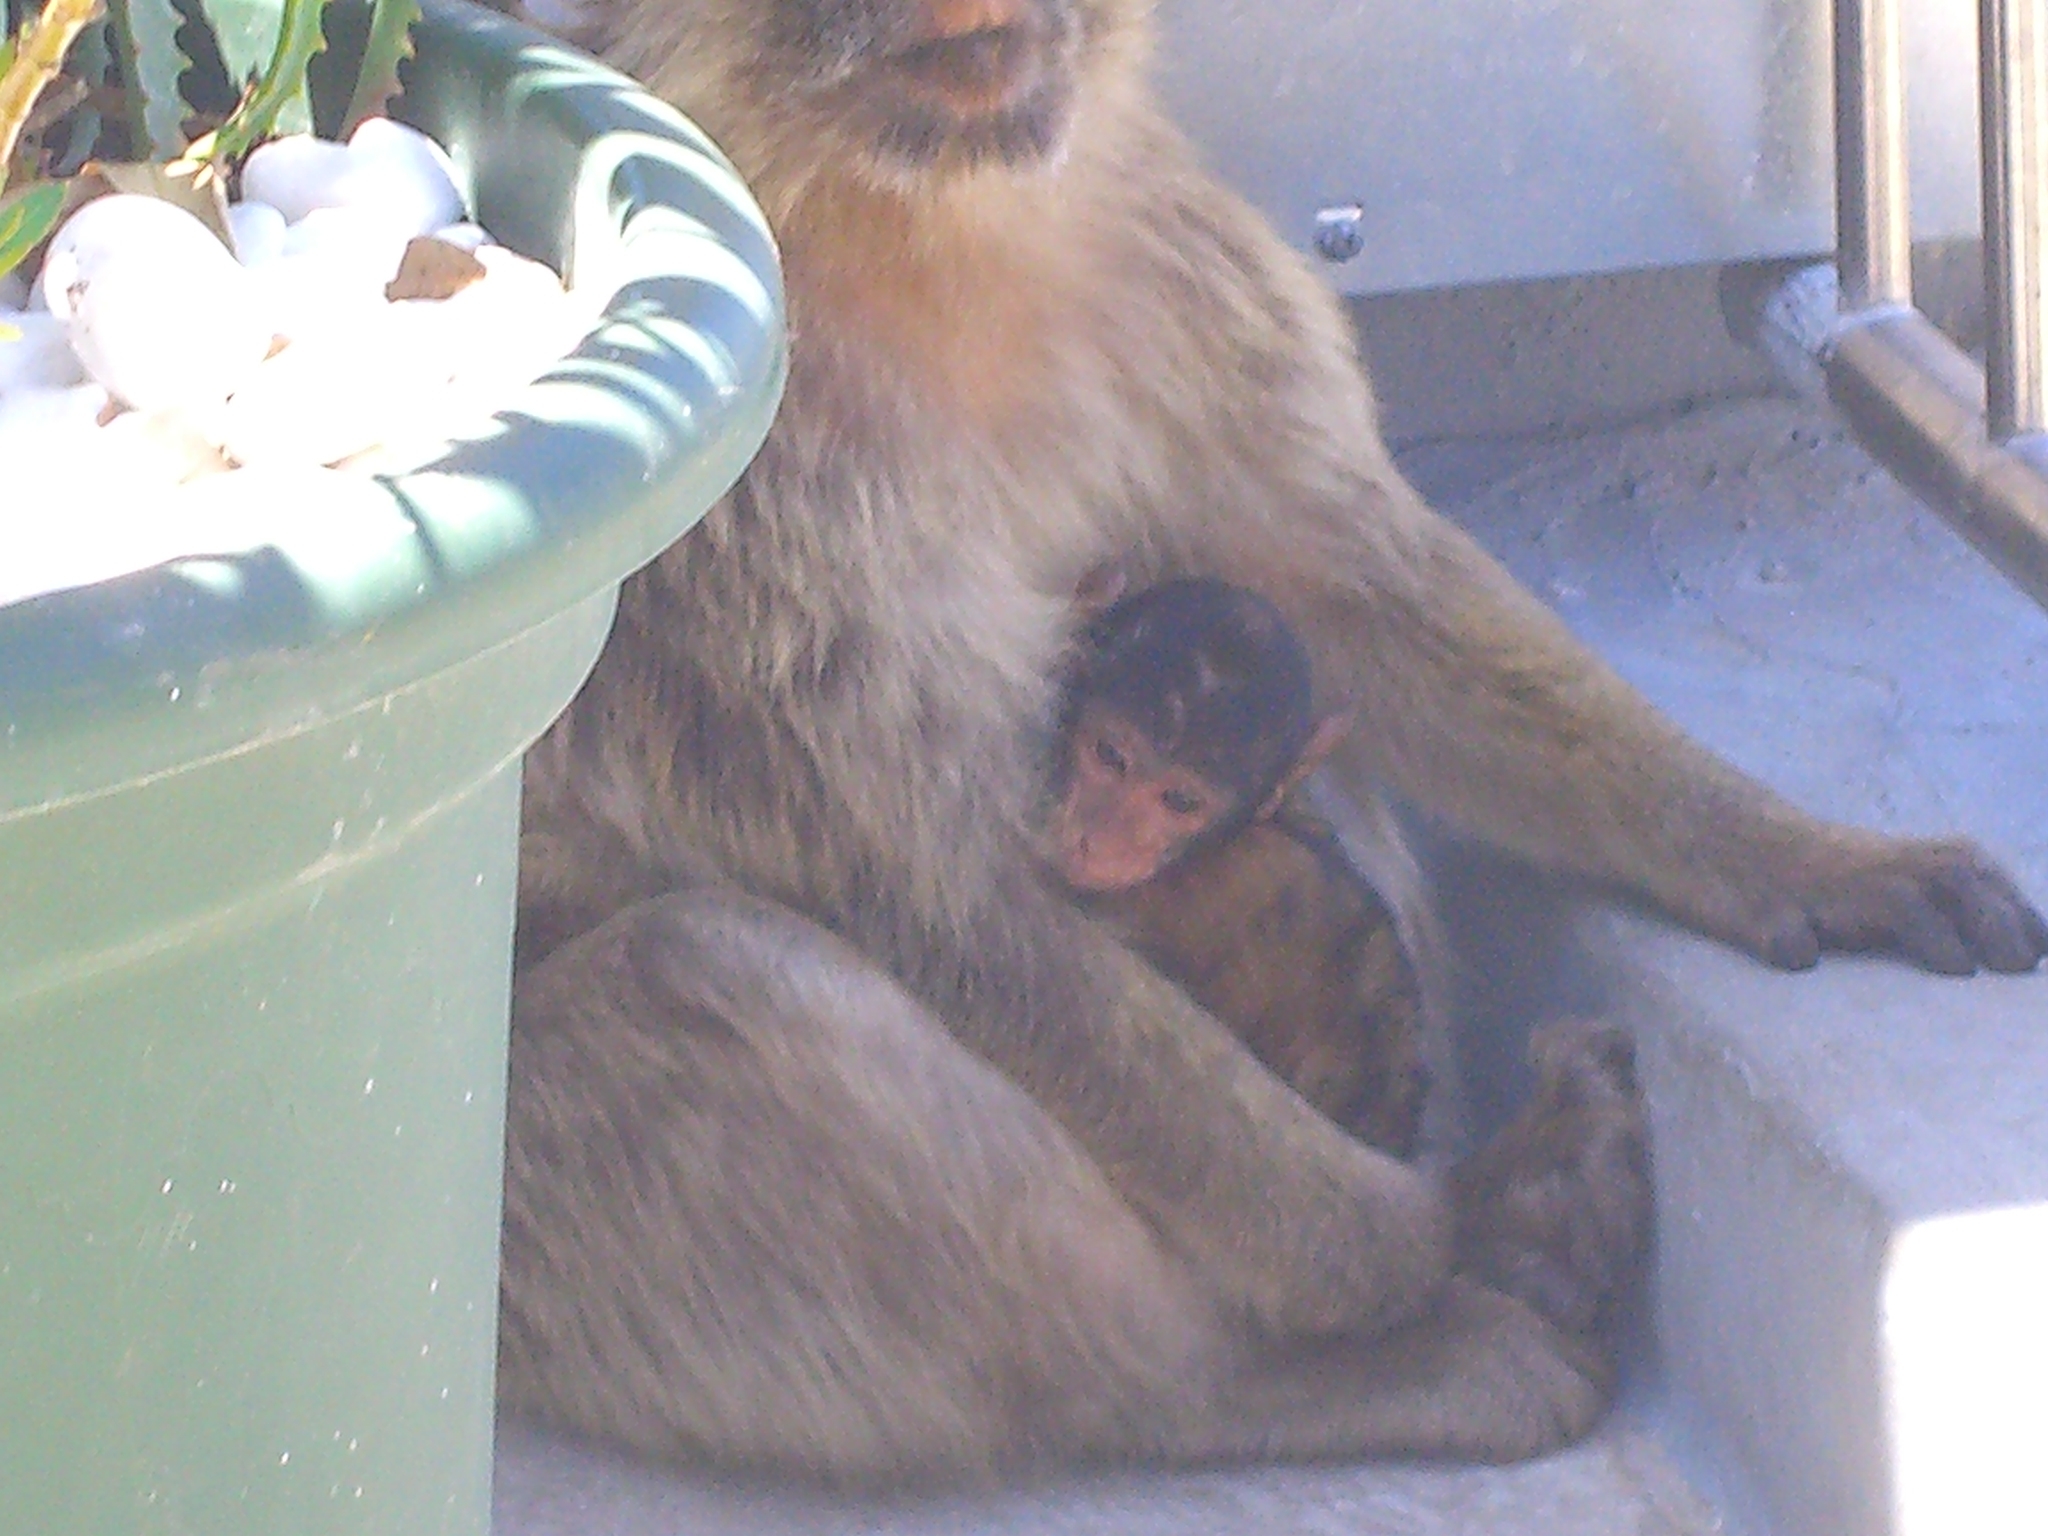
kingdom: Animalia
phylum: Chordata
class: Mammalia
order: Primates
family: Cercopithecidae
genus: Macaca
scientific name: Macaca sylvanus
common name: Barbary macaque
